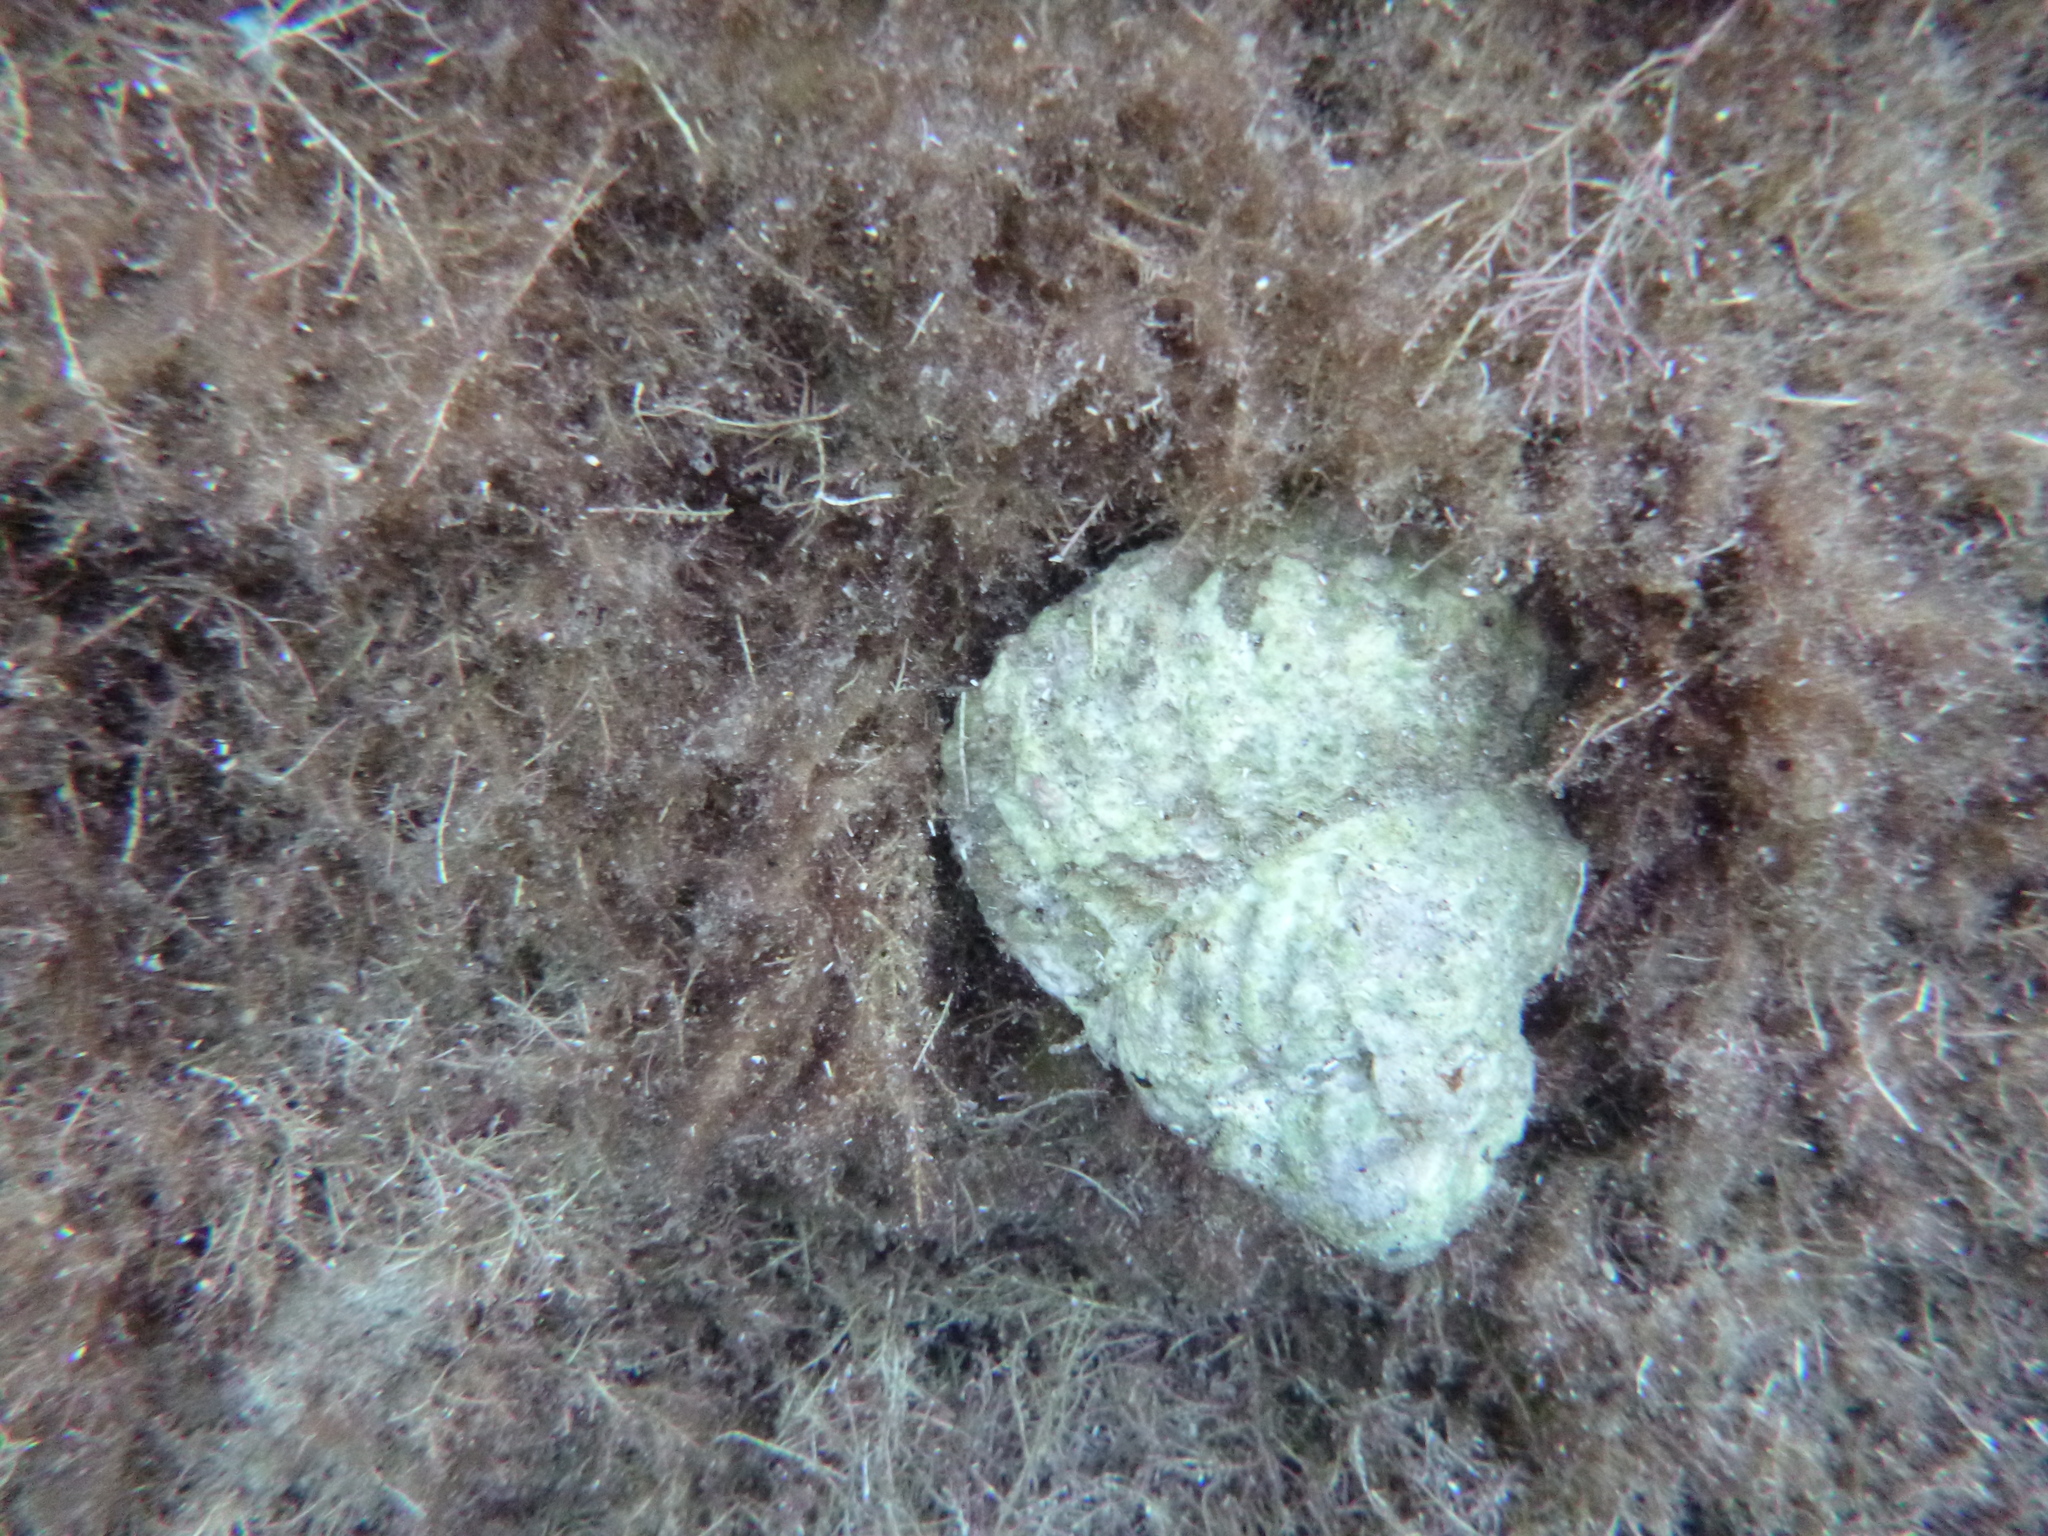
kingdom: Animalia
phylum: Mollusca
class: Gastropoda
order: Trochida
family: Turbinidae
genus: Cookia
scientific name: Cookia sulcata
